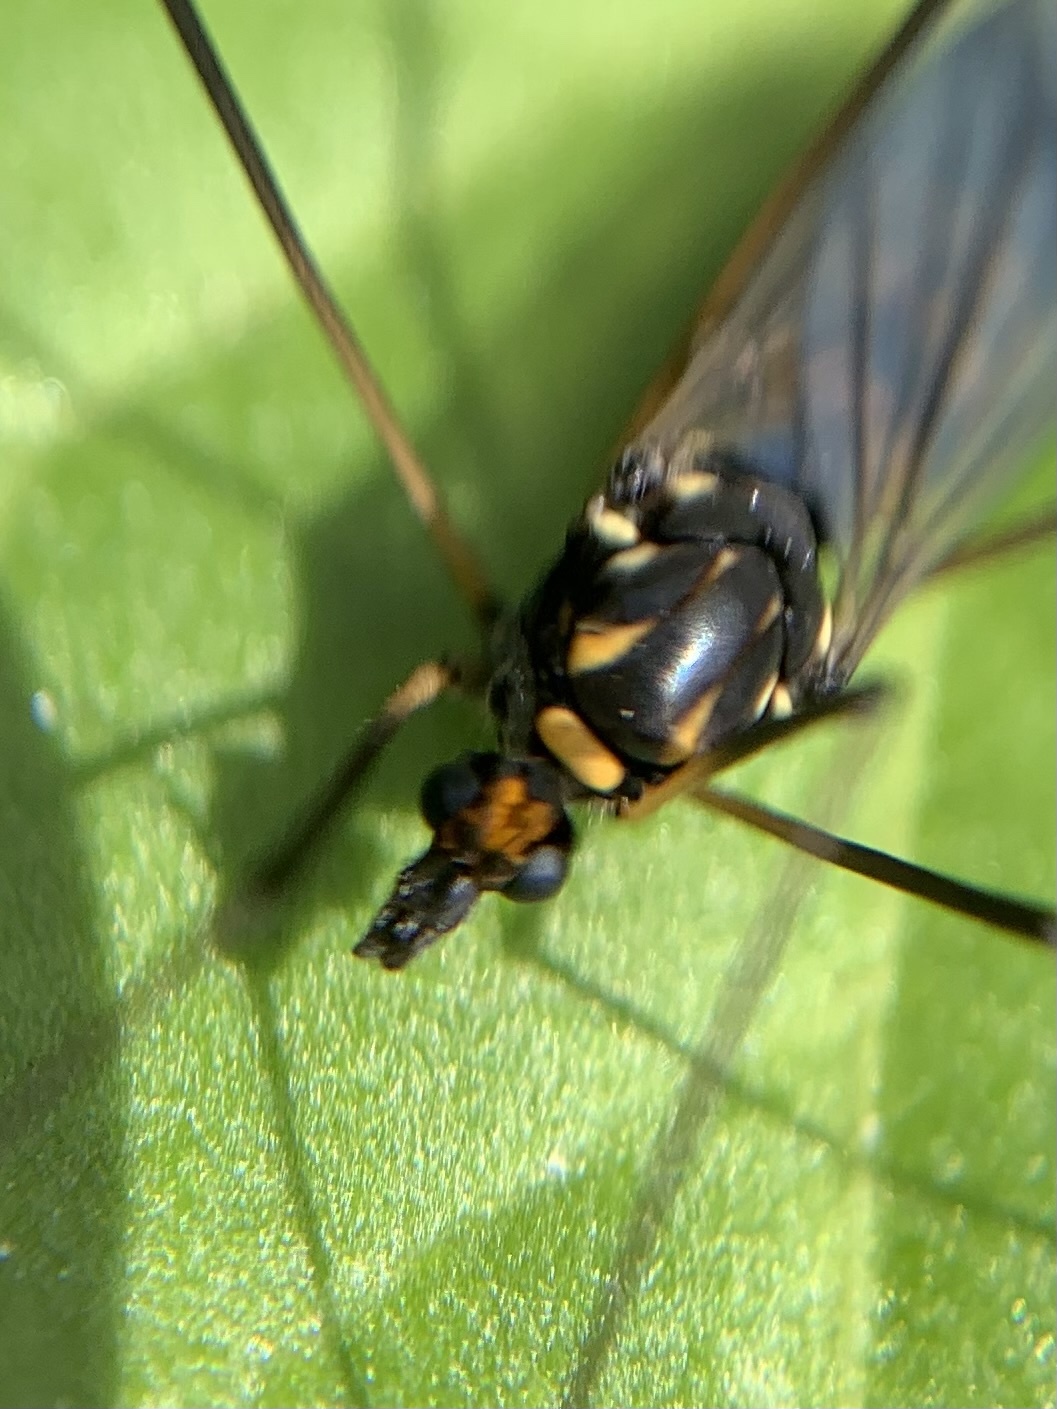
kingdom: Animalia
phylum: Arthropoda
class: Insecta
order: Diptera
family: Tipulidae
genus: Nephrotoma
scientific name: Nephrotoma crocata
